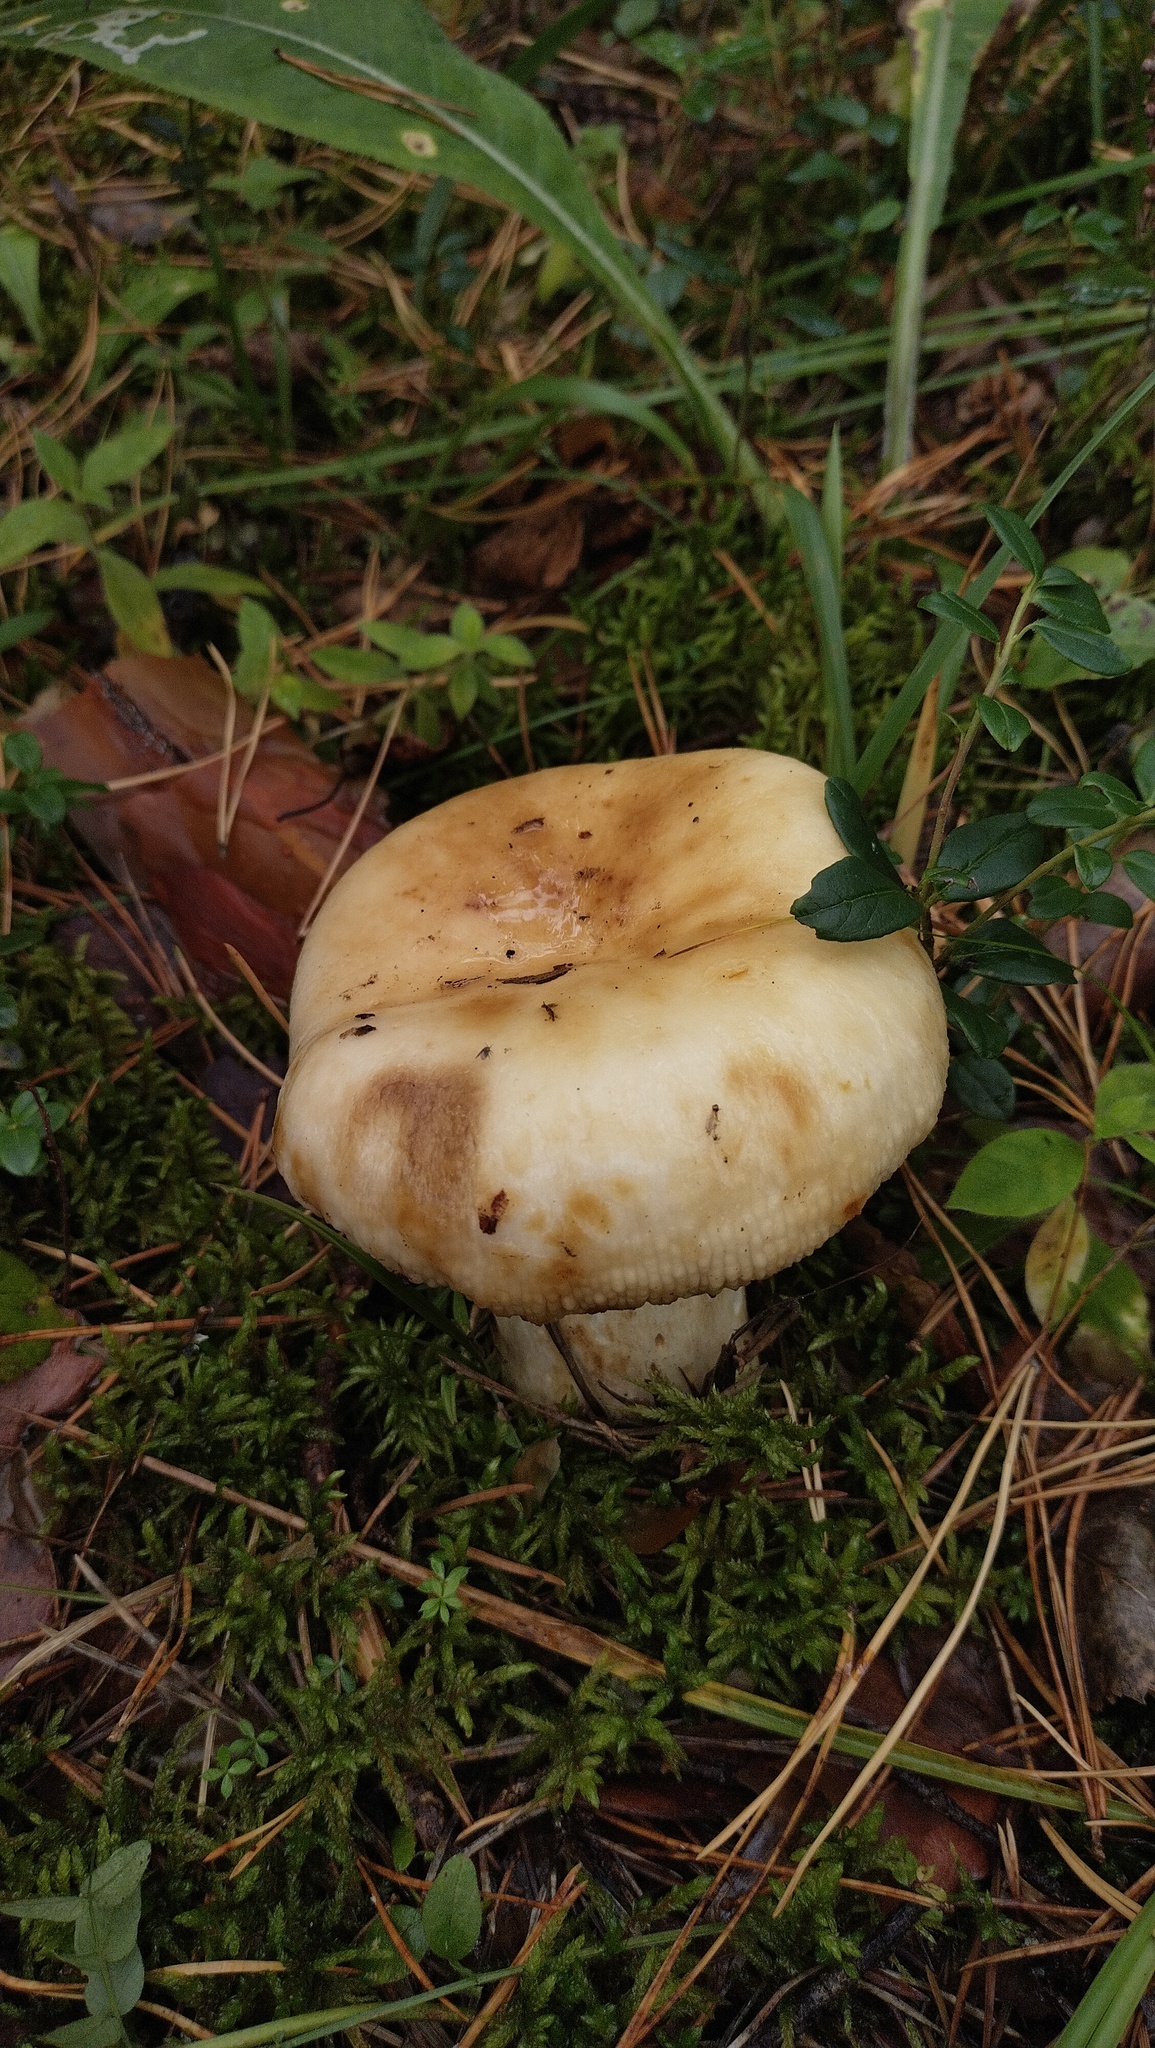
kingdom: Fungi
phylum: Basidiomycota
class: Agaricomycetes
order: Russulales
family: Russulaceae
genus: Russula
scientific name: Russula foetens
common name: Foetid russula
